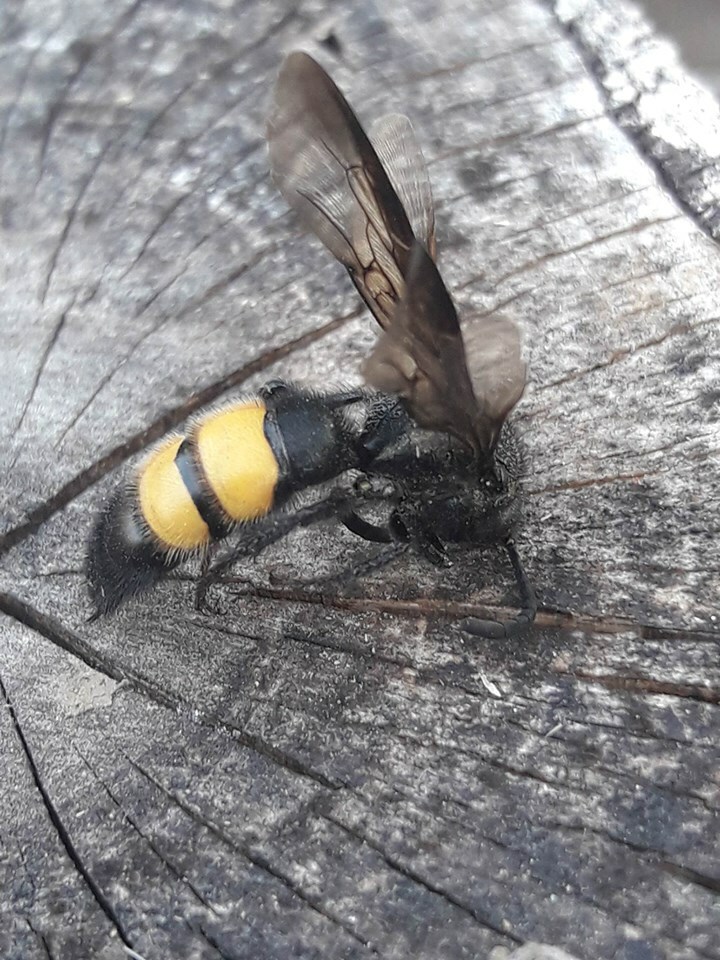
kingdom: Animalia
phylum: Arthropoda
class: Insecta
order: Hymenoptera
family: Scoliidae
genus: Scolia
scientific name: Scolia hirta
